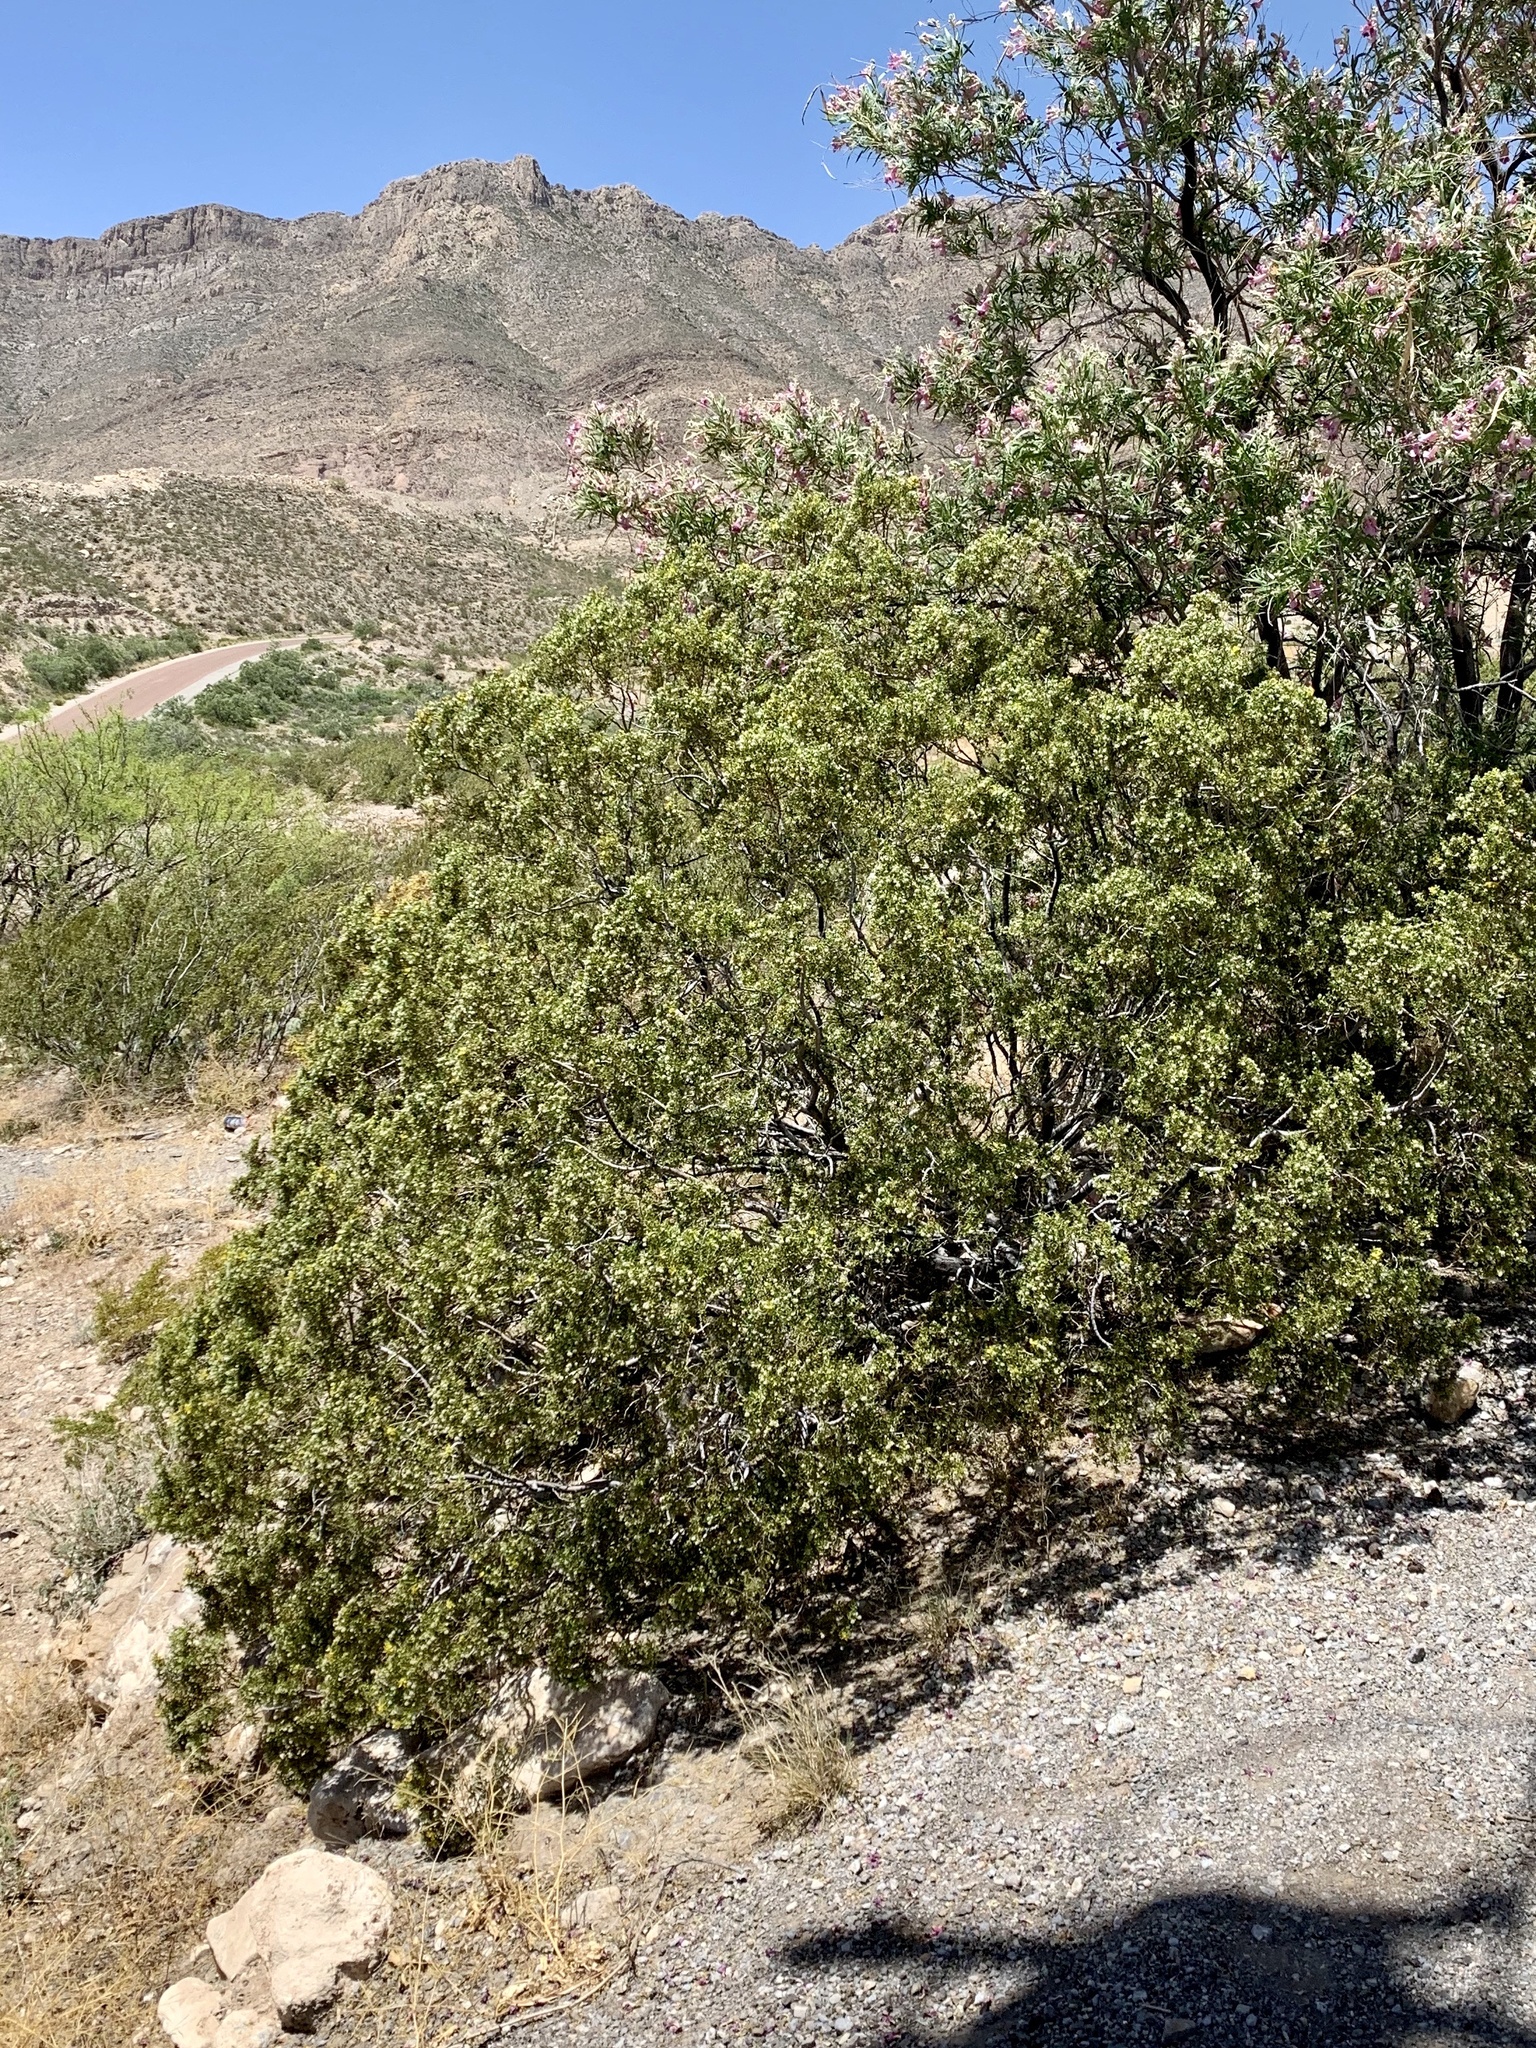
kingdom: Plantae
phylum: Tracheophyta
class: Magnoliopsida
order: Zygophyllales
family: Zygophyllaceae
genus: Larrea
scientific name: Larrea tridentata
